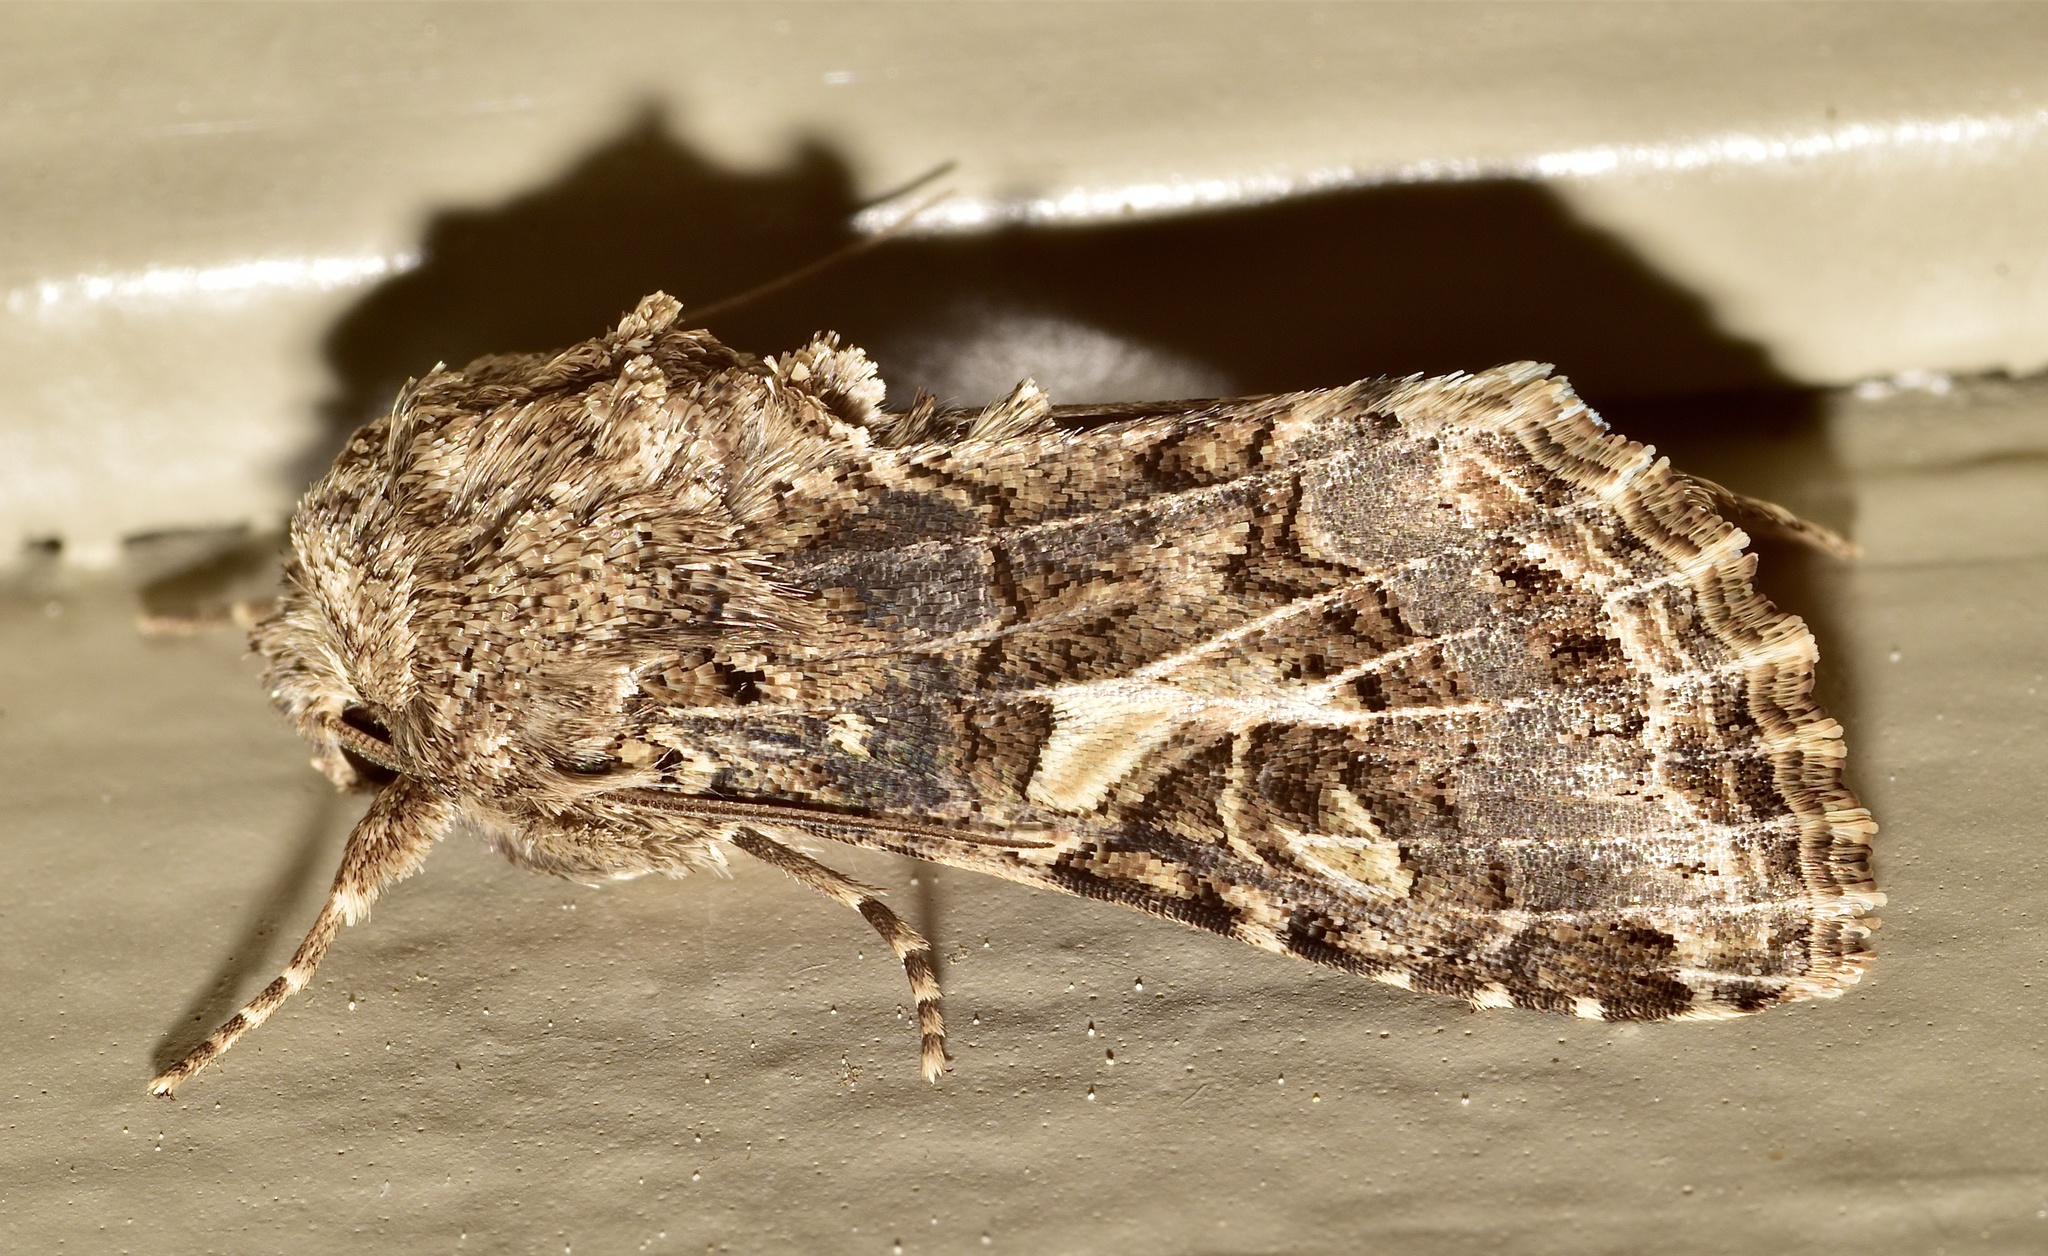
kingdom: Animalia
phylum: Arthropoda
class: Insecta
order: Lepidoptera
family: Noctuidae
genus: Spodoptera
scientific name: Spodoptera praefica
